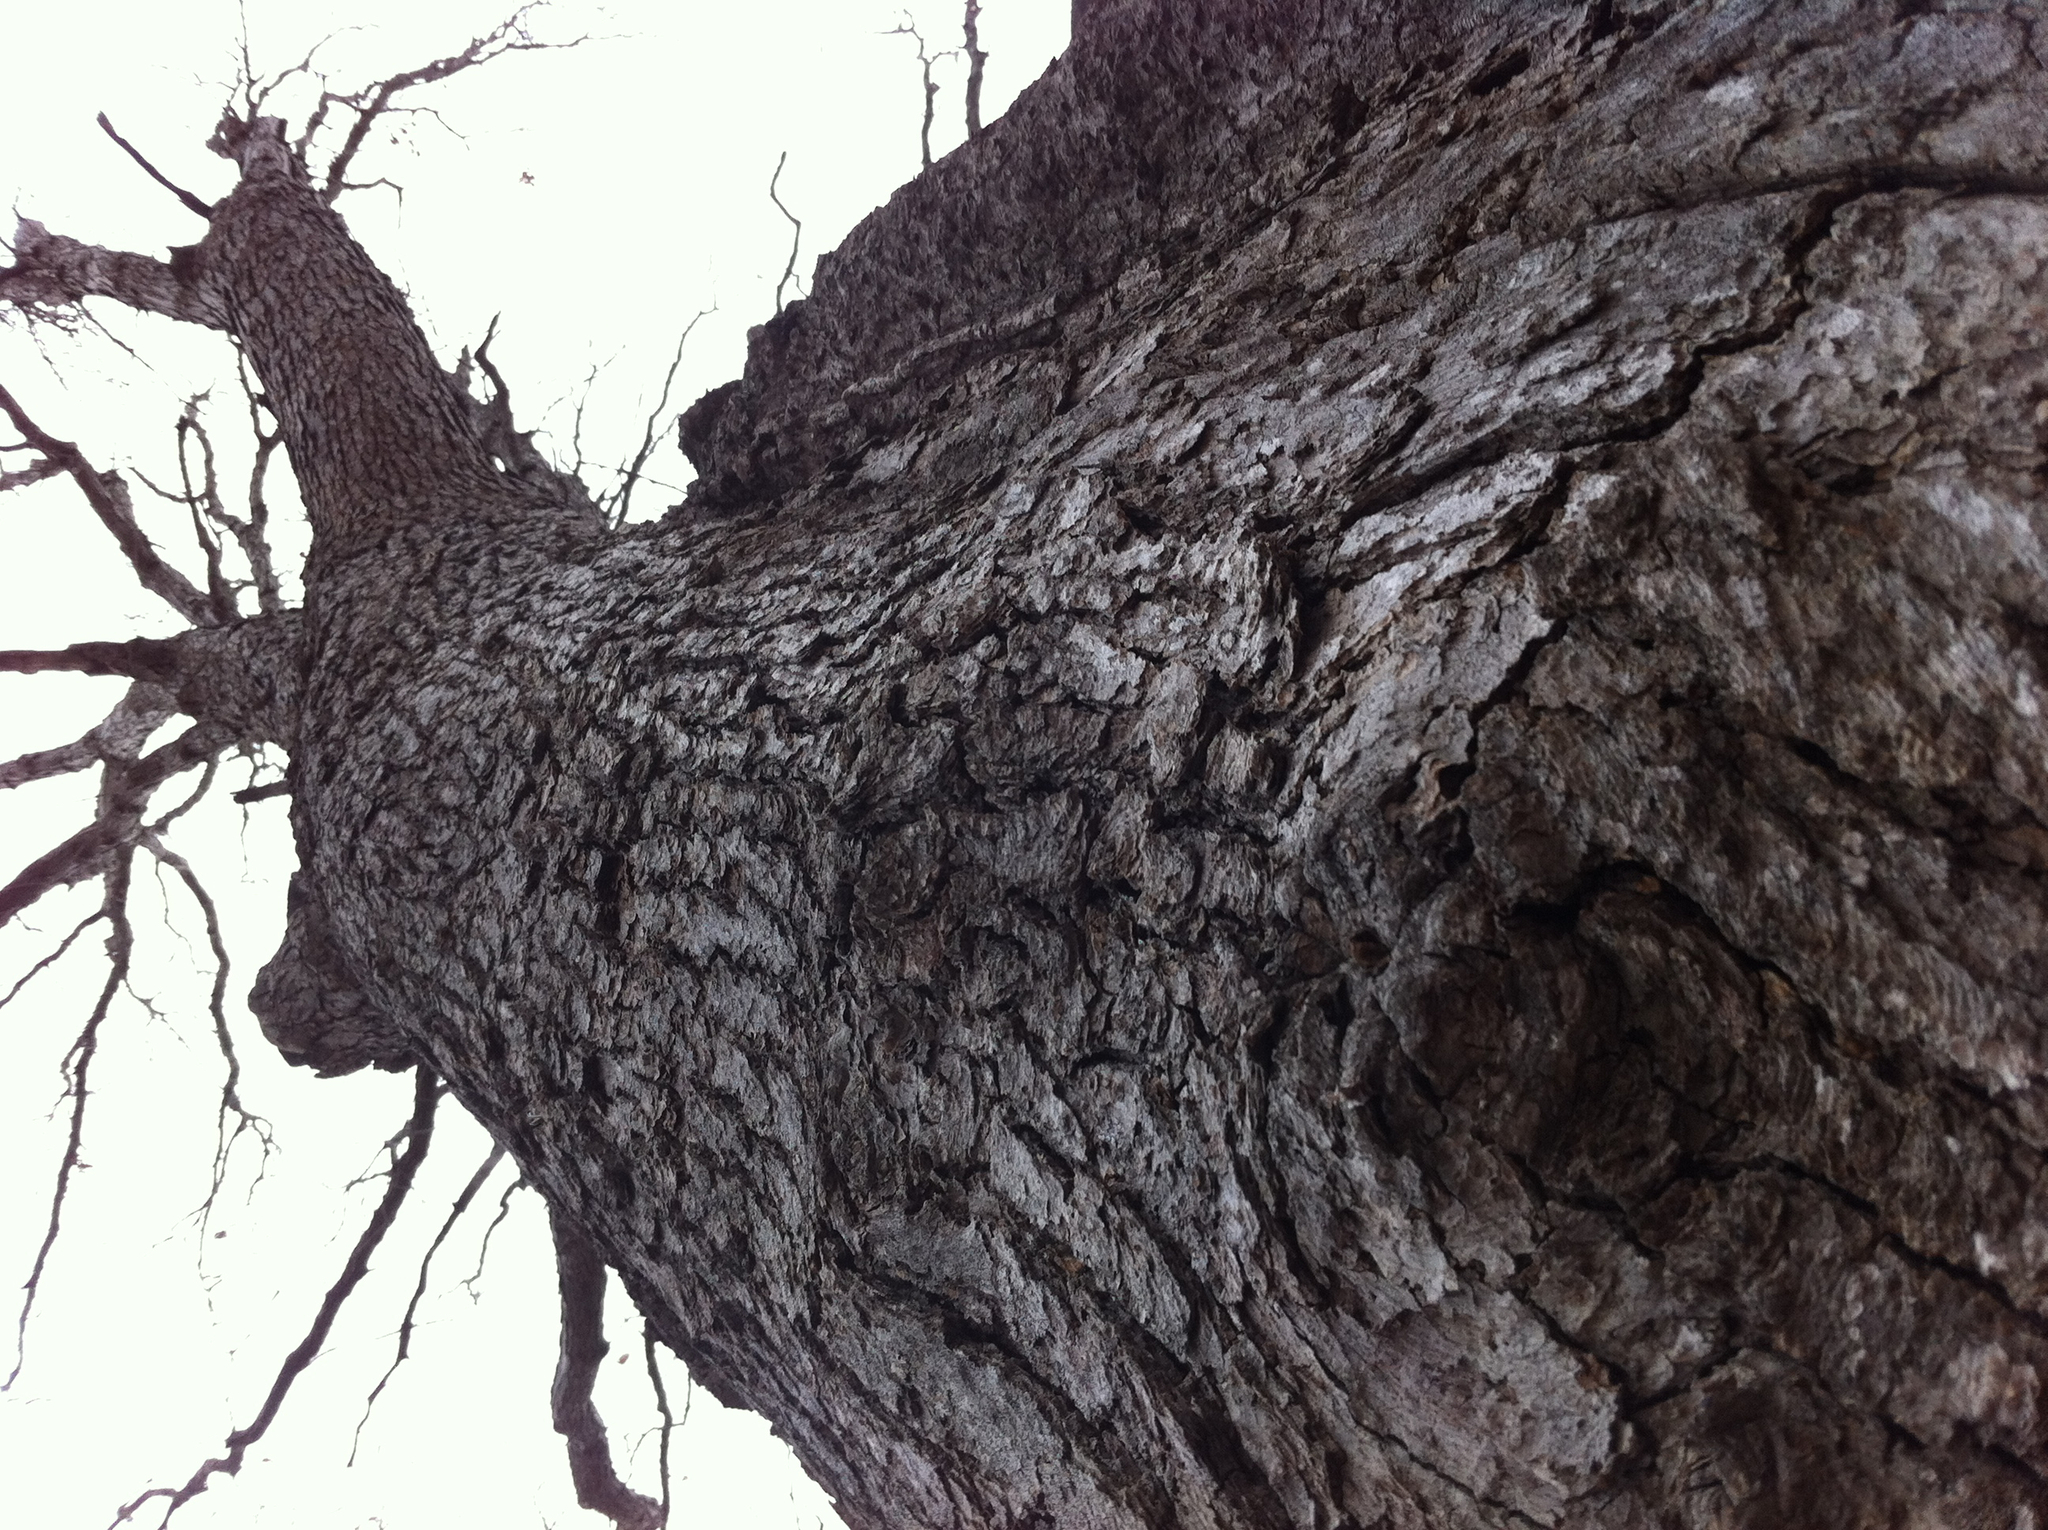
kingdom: Plantae
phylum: Tracheophyta
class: Magnoliopsida
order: Fagales
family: Fagaceae
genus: Quercus
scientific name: Quercus alba
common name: White oak
